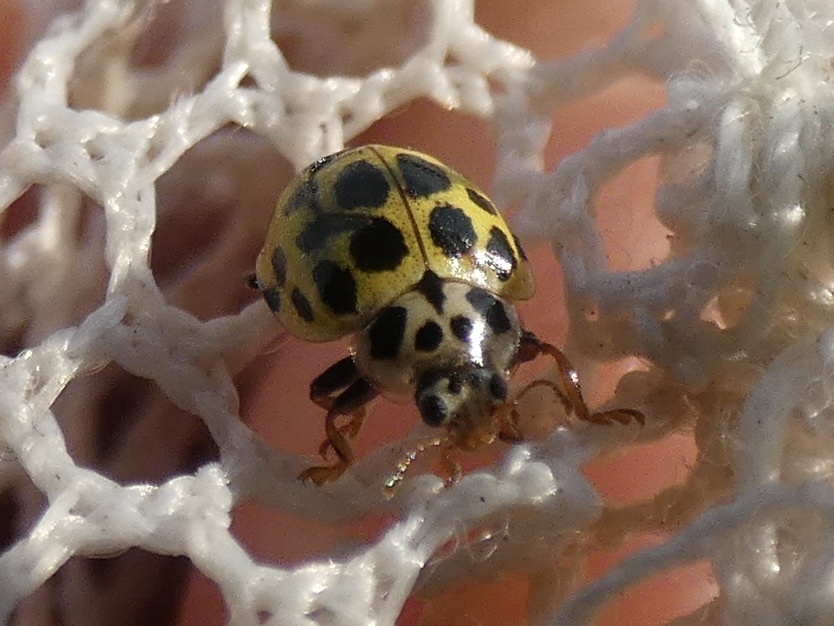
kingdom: Animalia
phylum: Arthropoda
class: Insecta
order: Coleoptera
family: Coccinellidae
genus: Psyllobora
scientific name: Psyllobora vigintiduopunctata
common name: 22-spot ladybird
